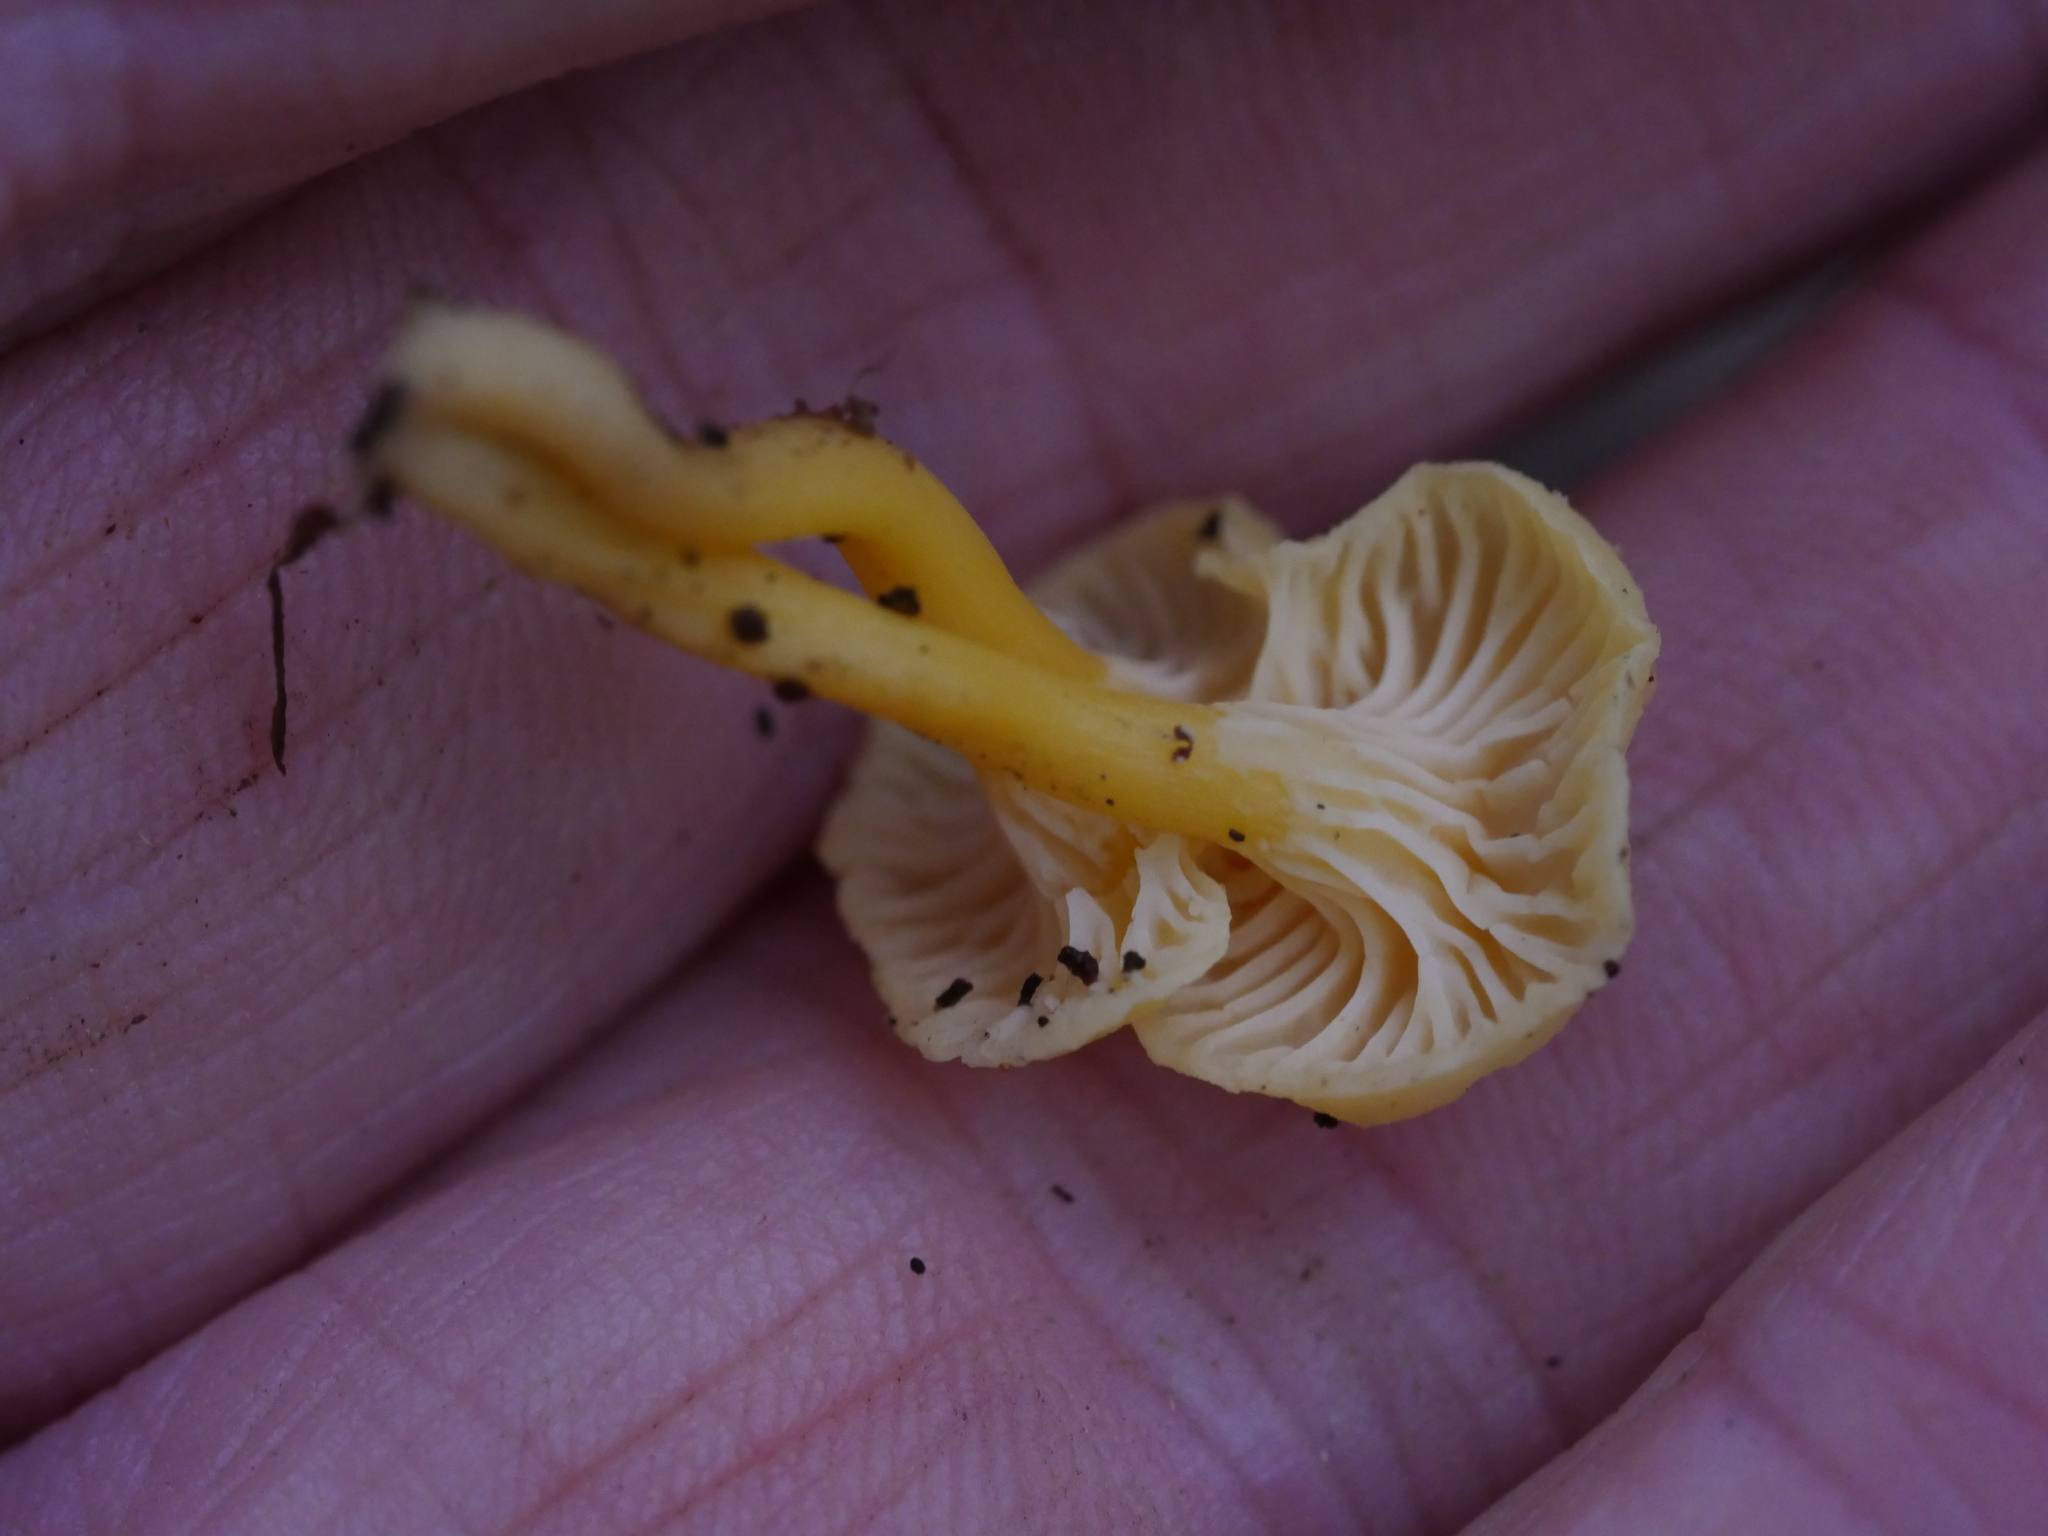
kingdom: Fungi
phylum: Basidiomycota
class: Agaricomycetes
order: Cantharellales
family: Hydnaceae
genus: Cantharellus
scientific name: Cantharellus wellingtonensis
